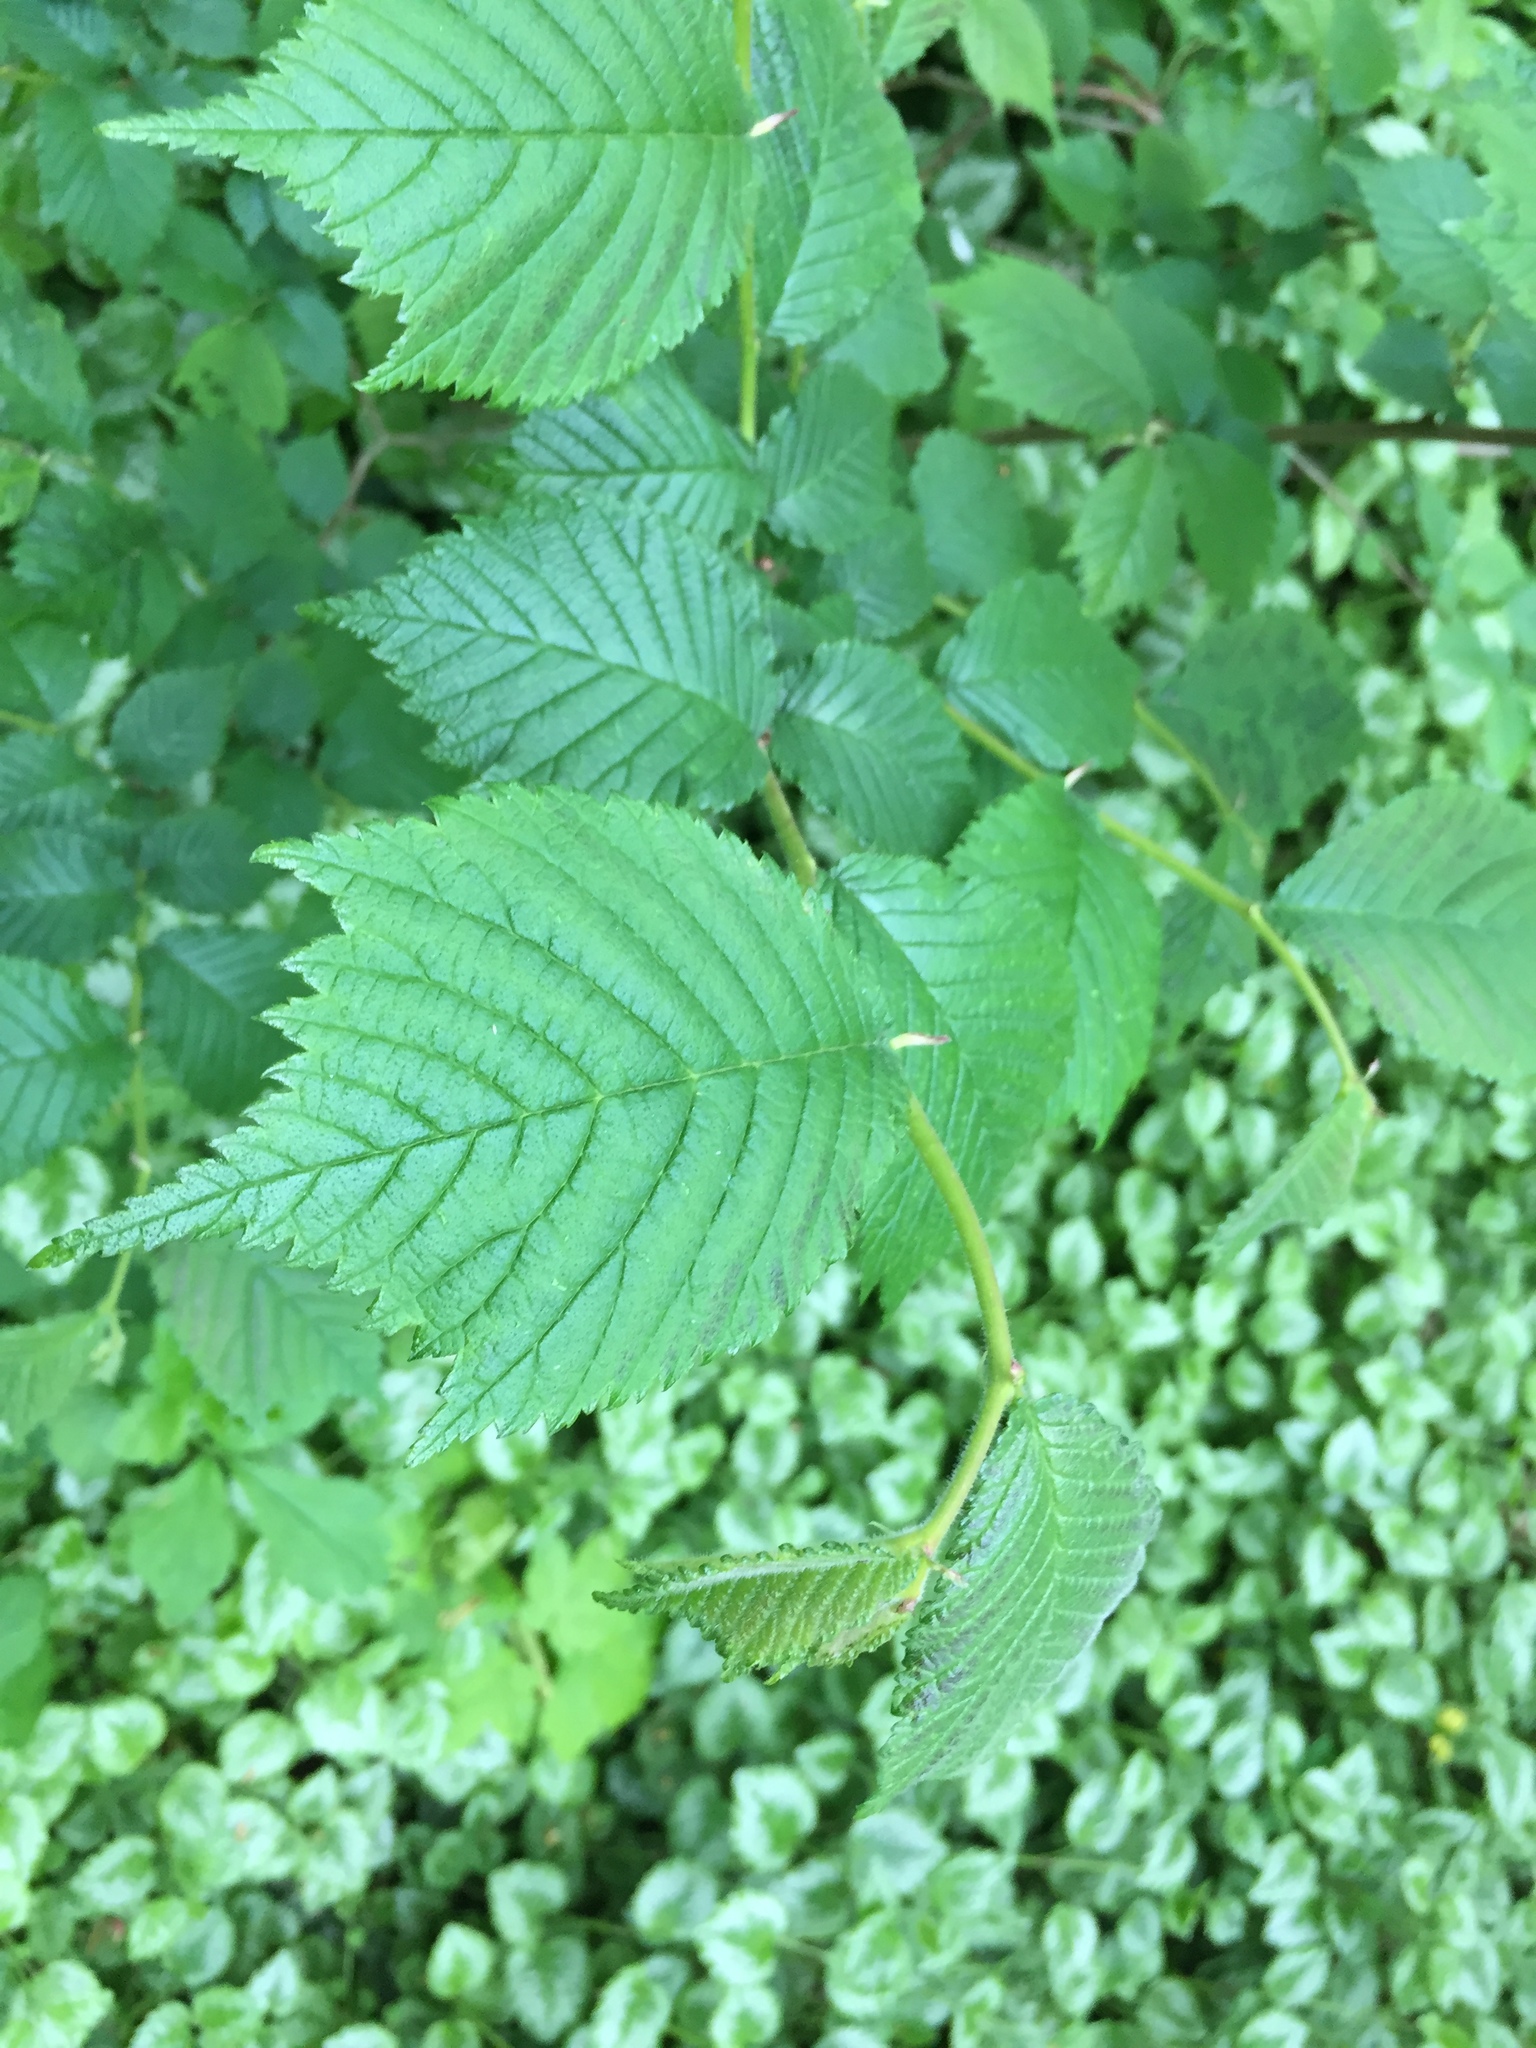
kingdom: Plantae
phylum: Tracheophyta
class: Magnoliopsida
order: Rosales
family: Ulmaceae
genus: Ulmus
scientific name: Ulmus glabra
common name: Wych elm
